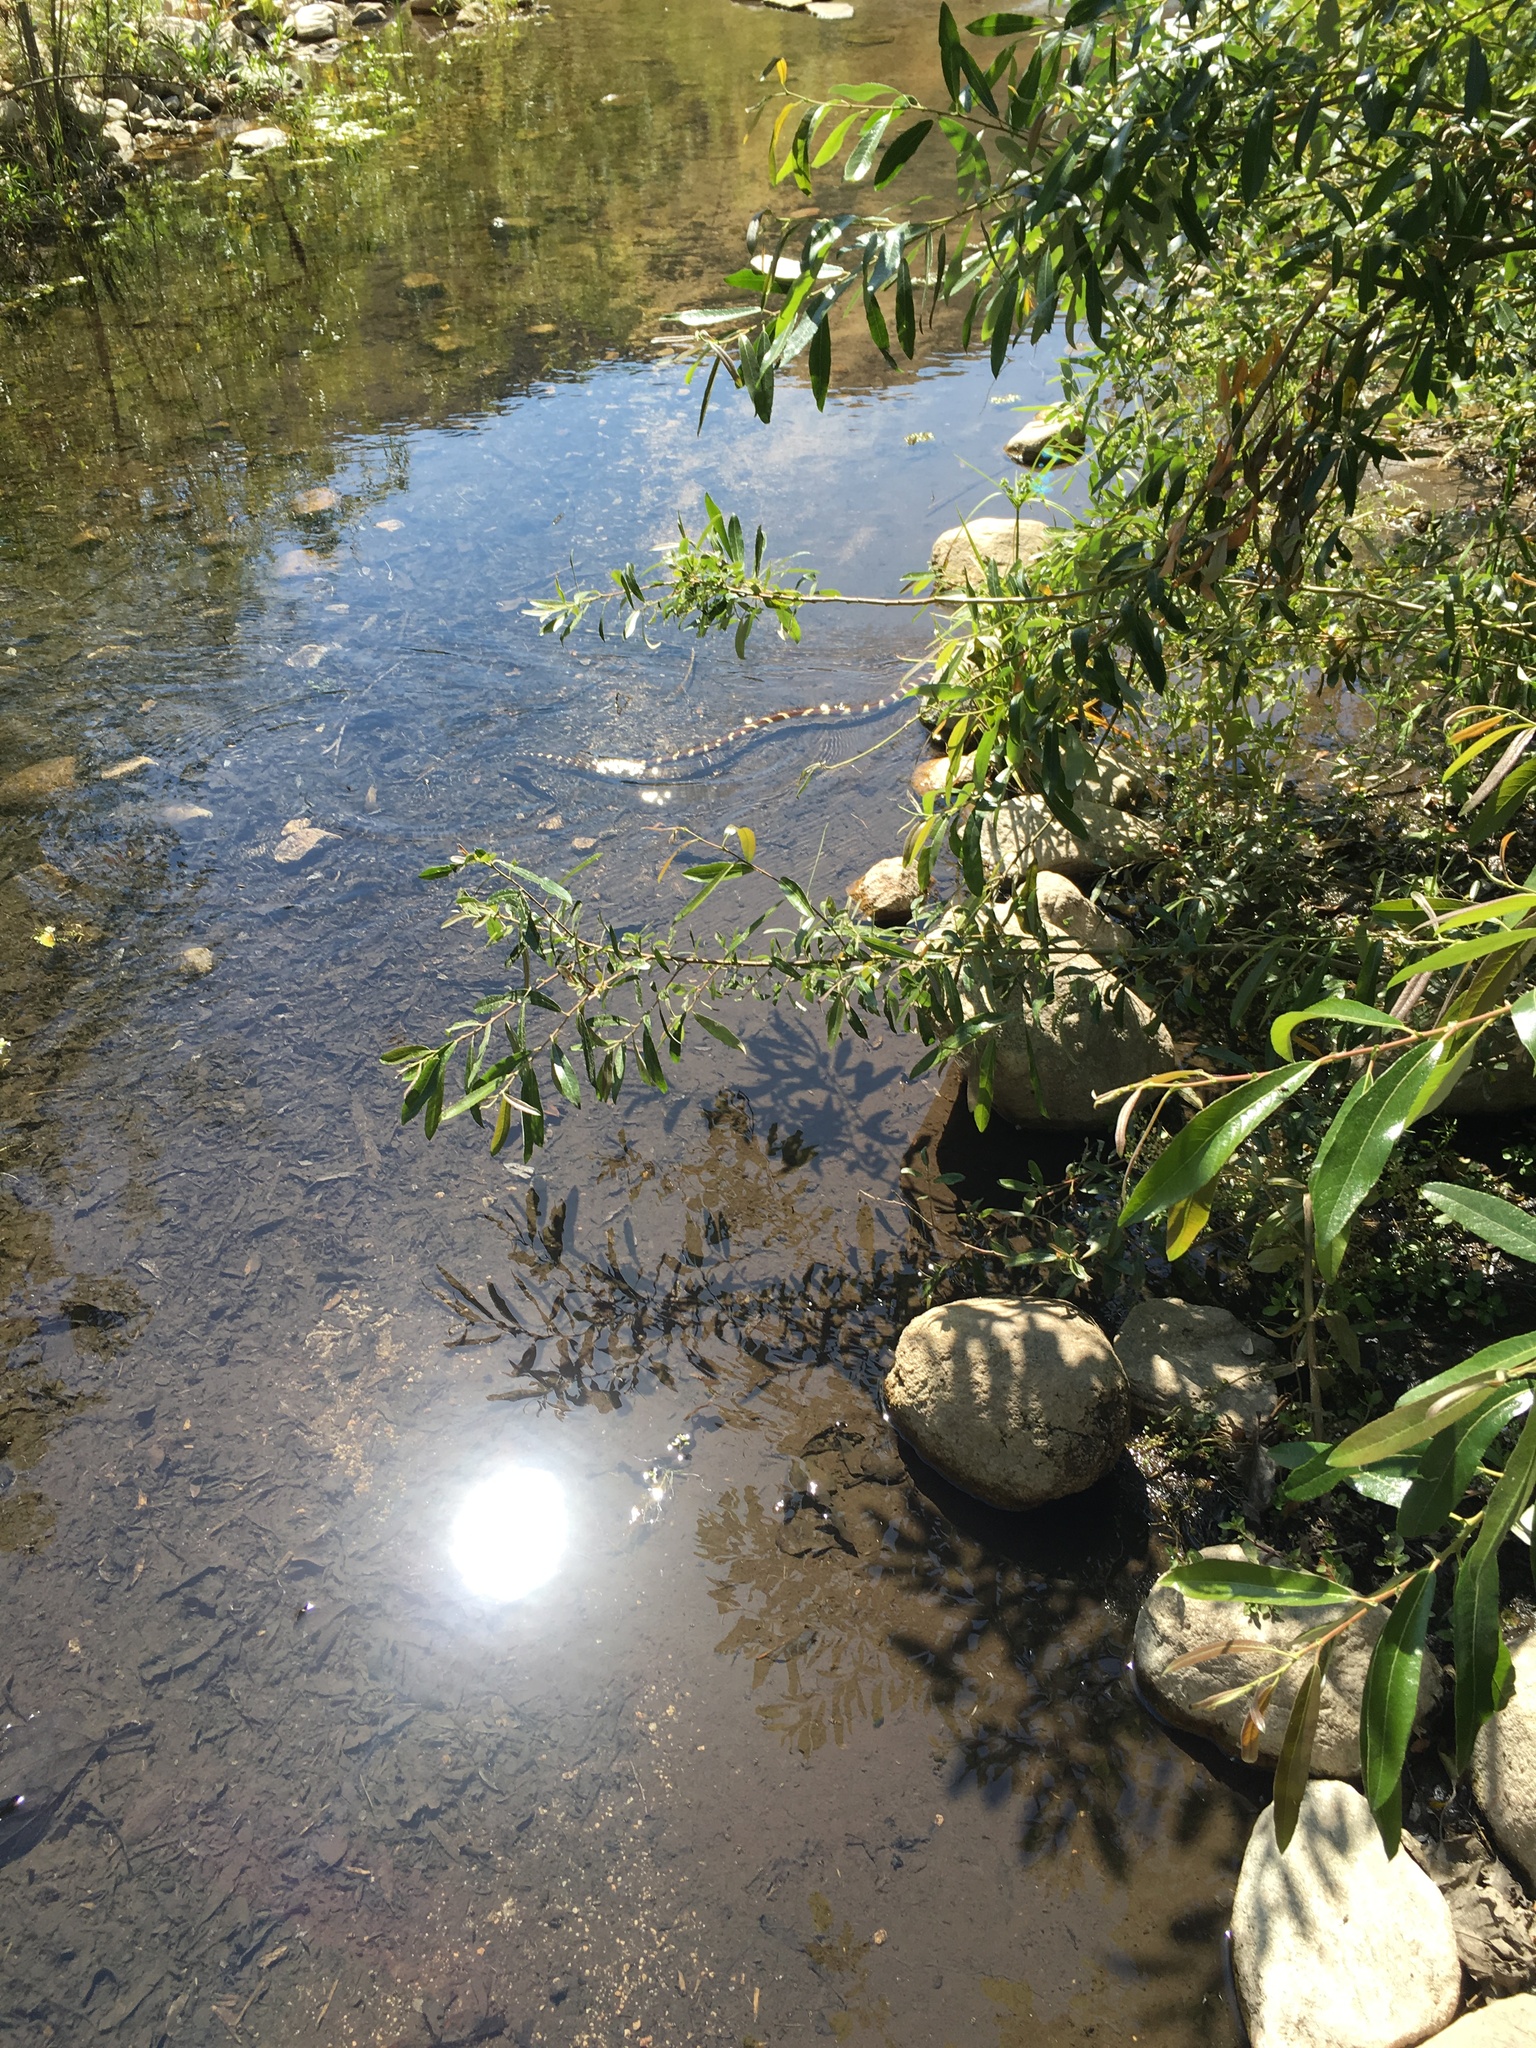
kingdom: Animalia
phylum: Chordata
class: Squamata
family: Colubridae
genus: Lampropeltis
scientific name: Lampropeltis californiae
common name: California kingsnake
